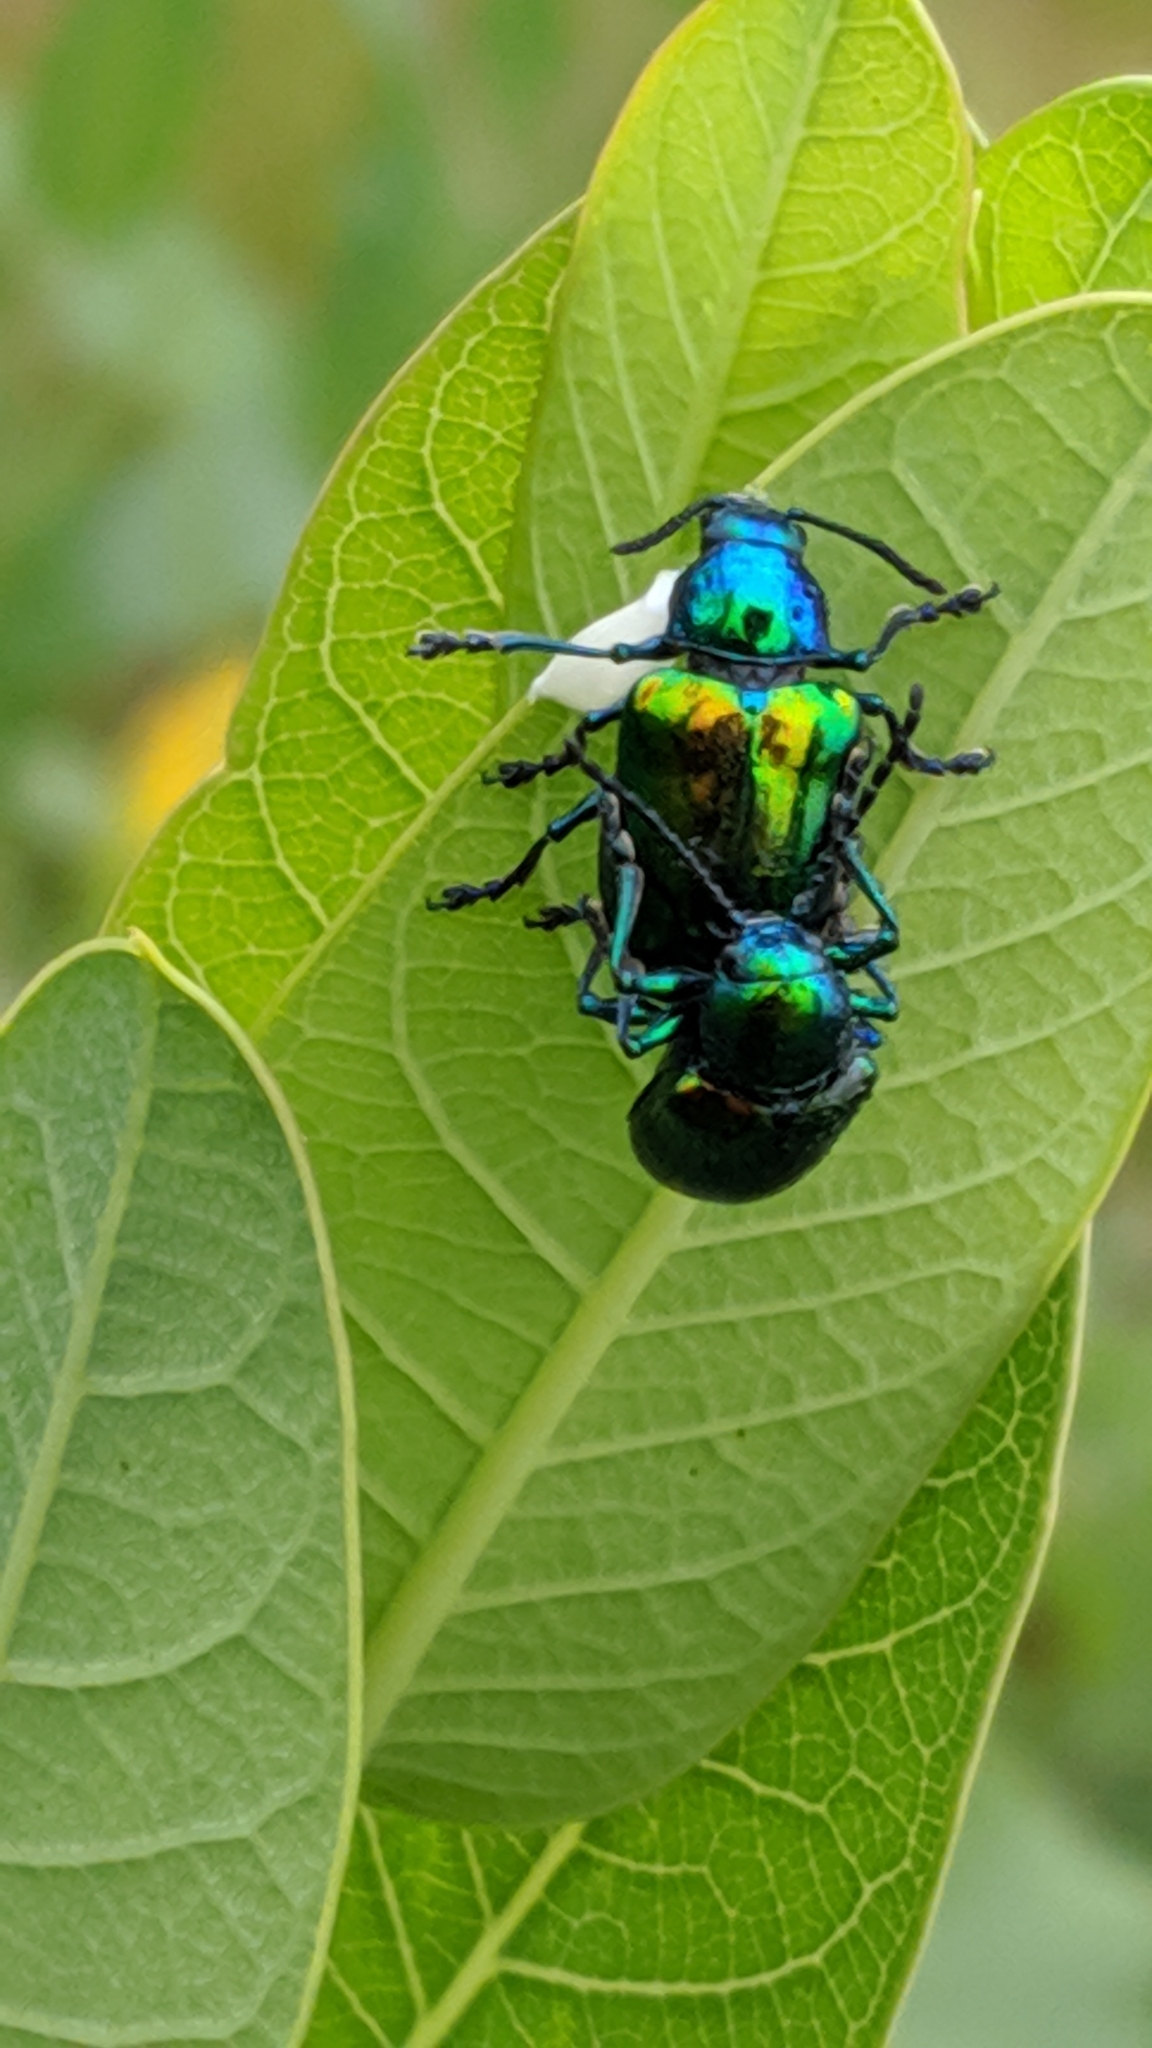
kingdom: Animalia
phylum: Arthropoda
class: Insecta
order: Coleoptera
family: Chrysomelidae
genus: Chrysochus
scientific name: Chrysochus auratus
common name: Dogbane leaf beetle
